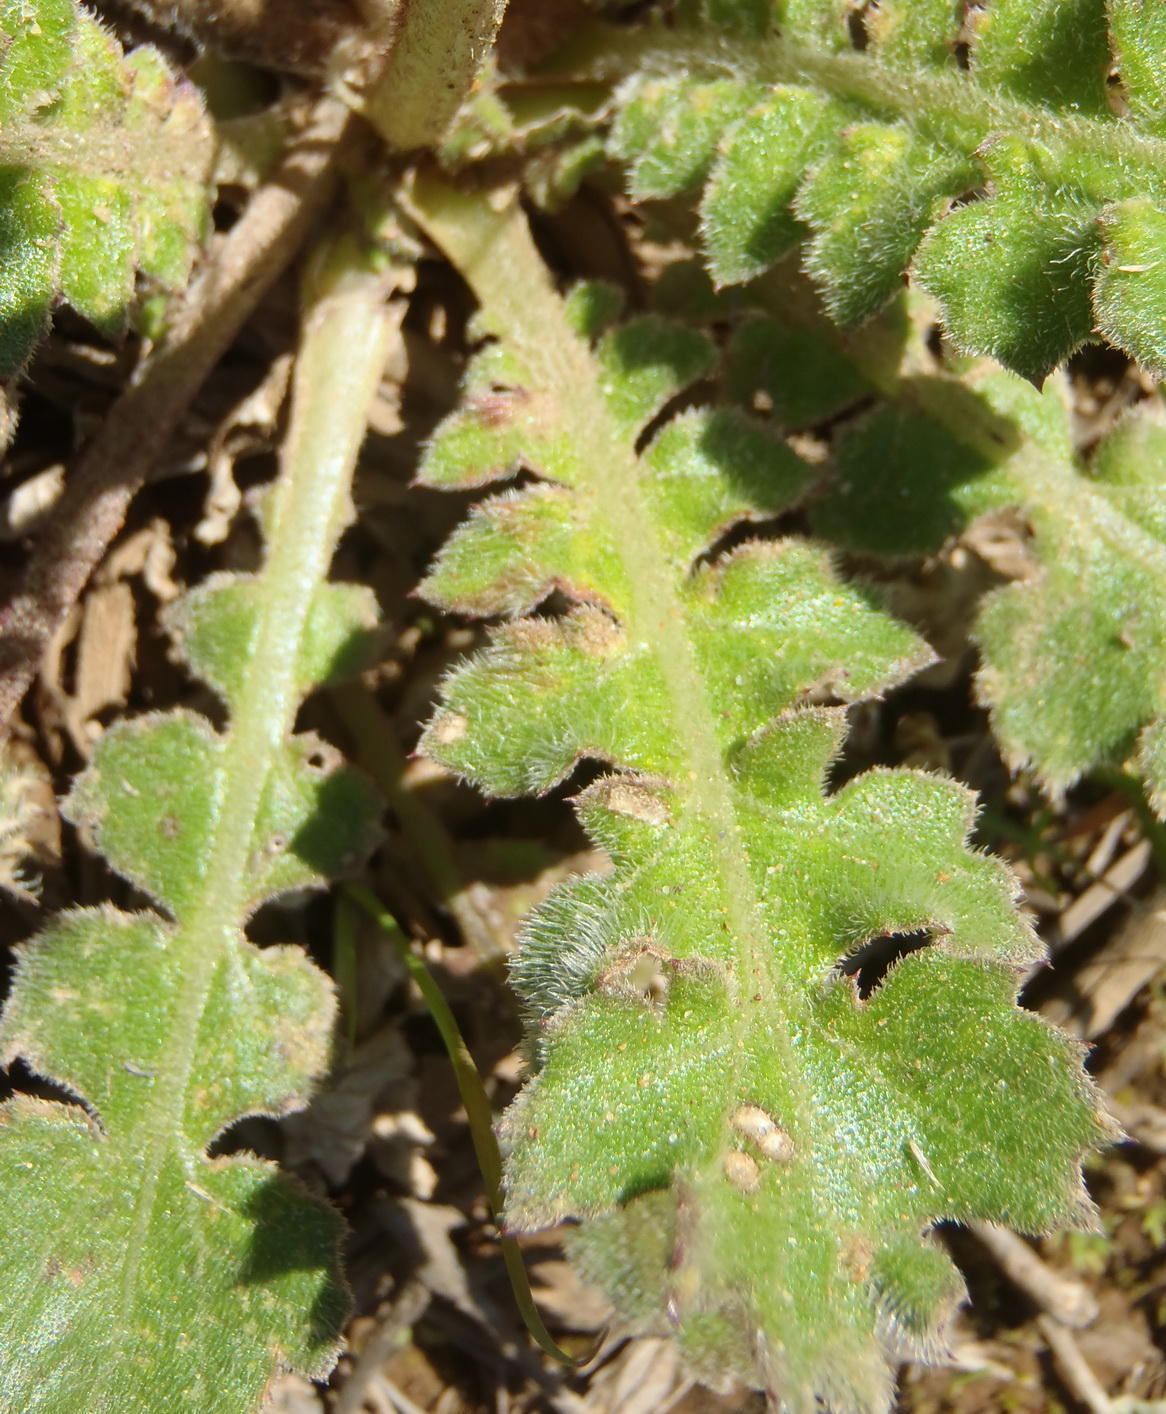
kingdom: Plantae
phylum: Tracheophyta
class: Magnoliopsida
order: Asterales
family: Asteraceae
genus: Arctotheca
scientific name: Arctotheca prostrata
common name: Capeweed
